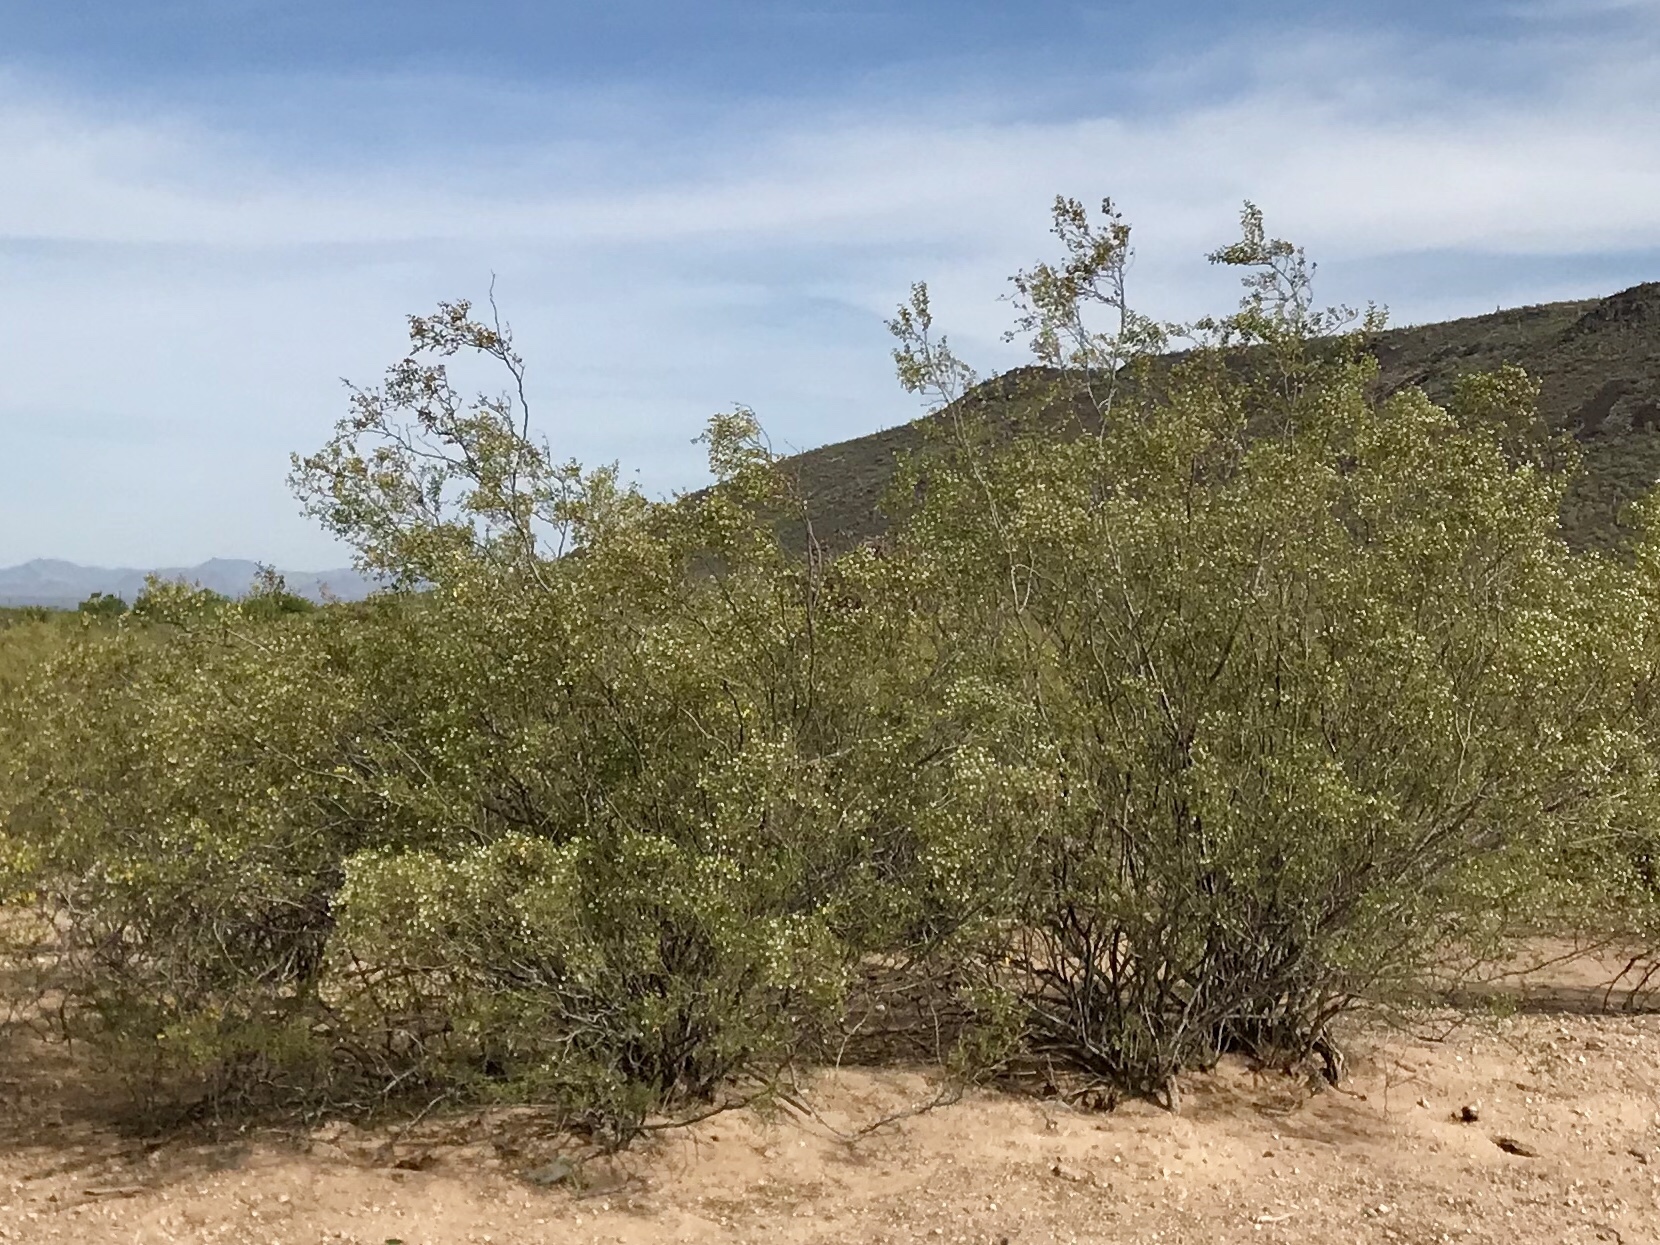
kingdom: Plantae
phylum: Tracheophyta
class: Magnoliopsida
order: Zygophyllales
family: Zygophyllaceae
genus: Larrea
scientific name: Larrea tridentata
